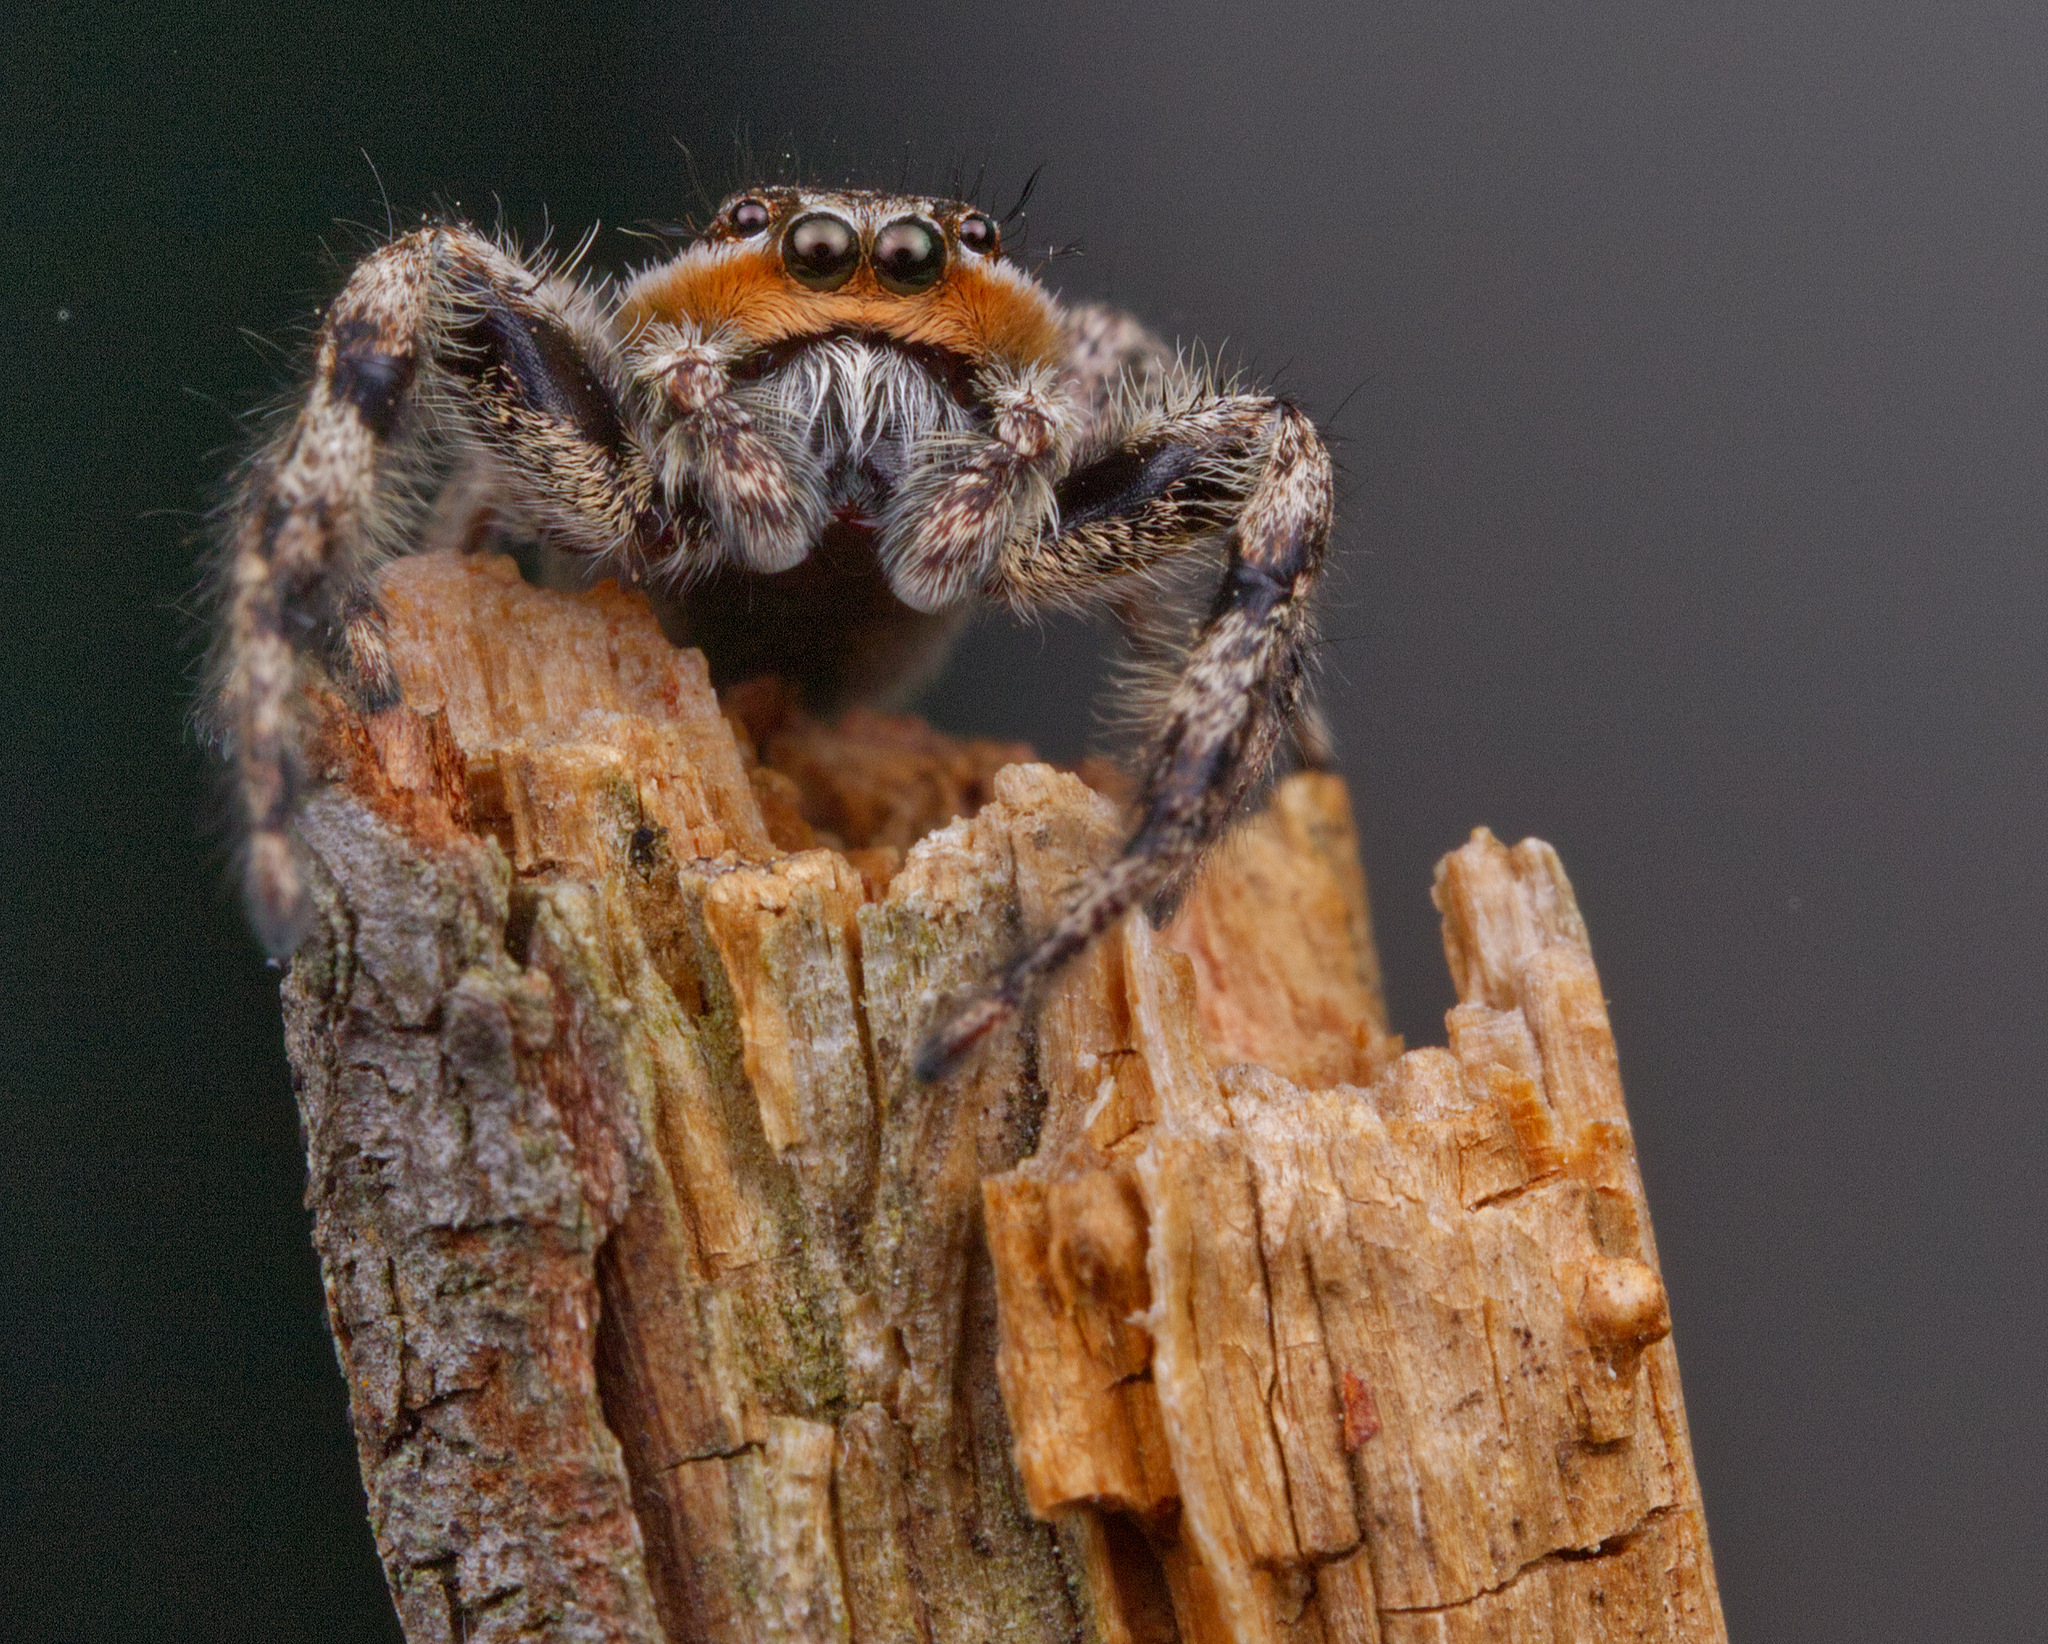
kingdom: Animalia
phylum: Arthropoda
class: Arachnida
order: Araneae
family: Salticidae
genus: Platycryptus
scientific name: Platycryptus undatus
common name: Tan jumping spider
